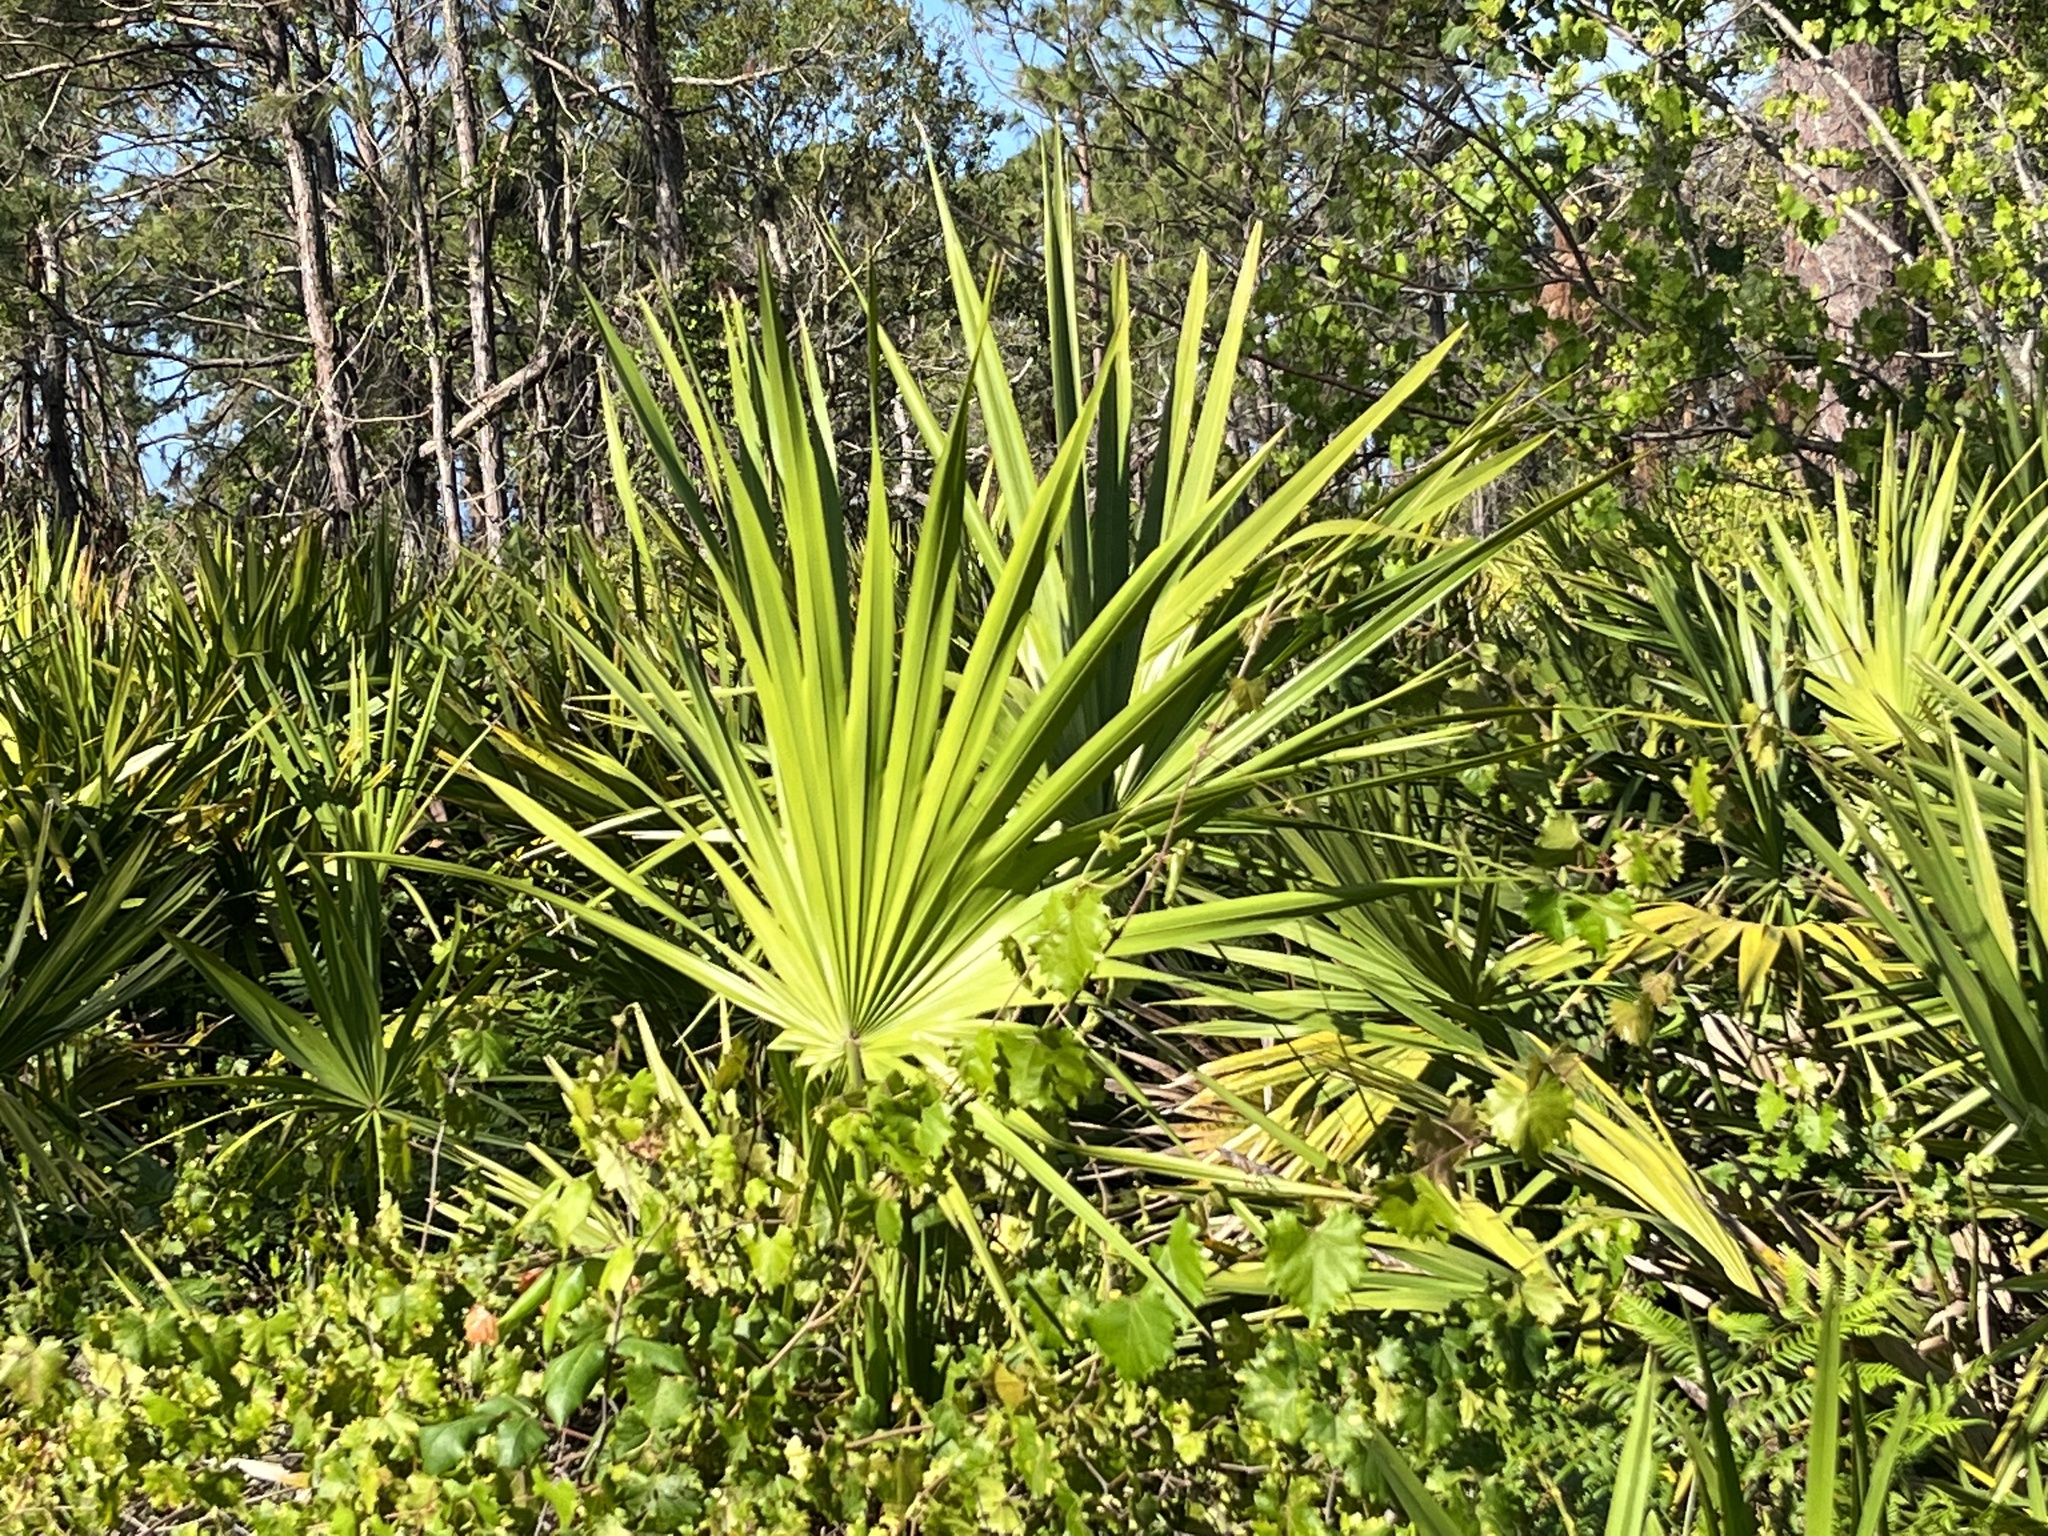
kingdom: Plantae
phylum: Tracheophyta
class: Liliopsida
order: Arecales
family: Arecaceae
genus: Serenoa
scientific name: Serenoa repens
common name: Saw-palmetto
